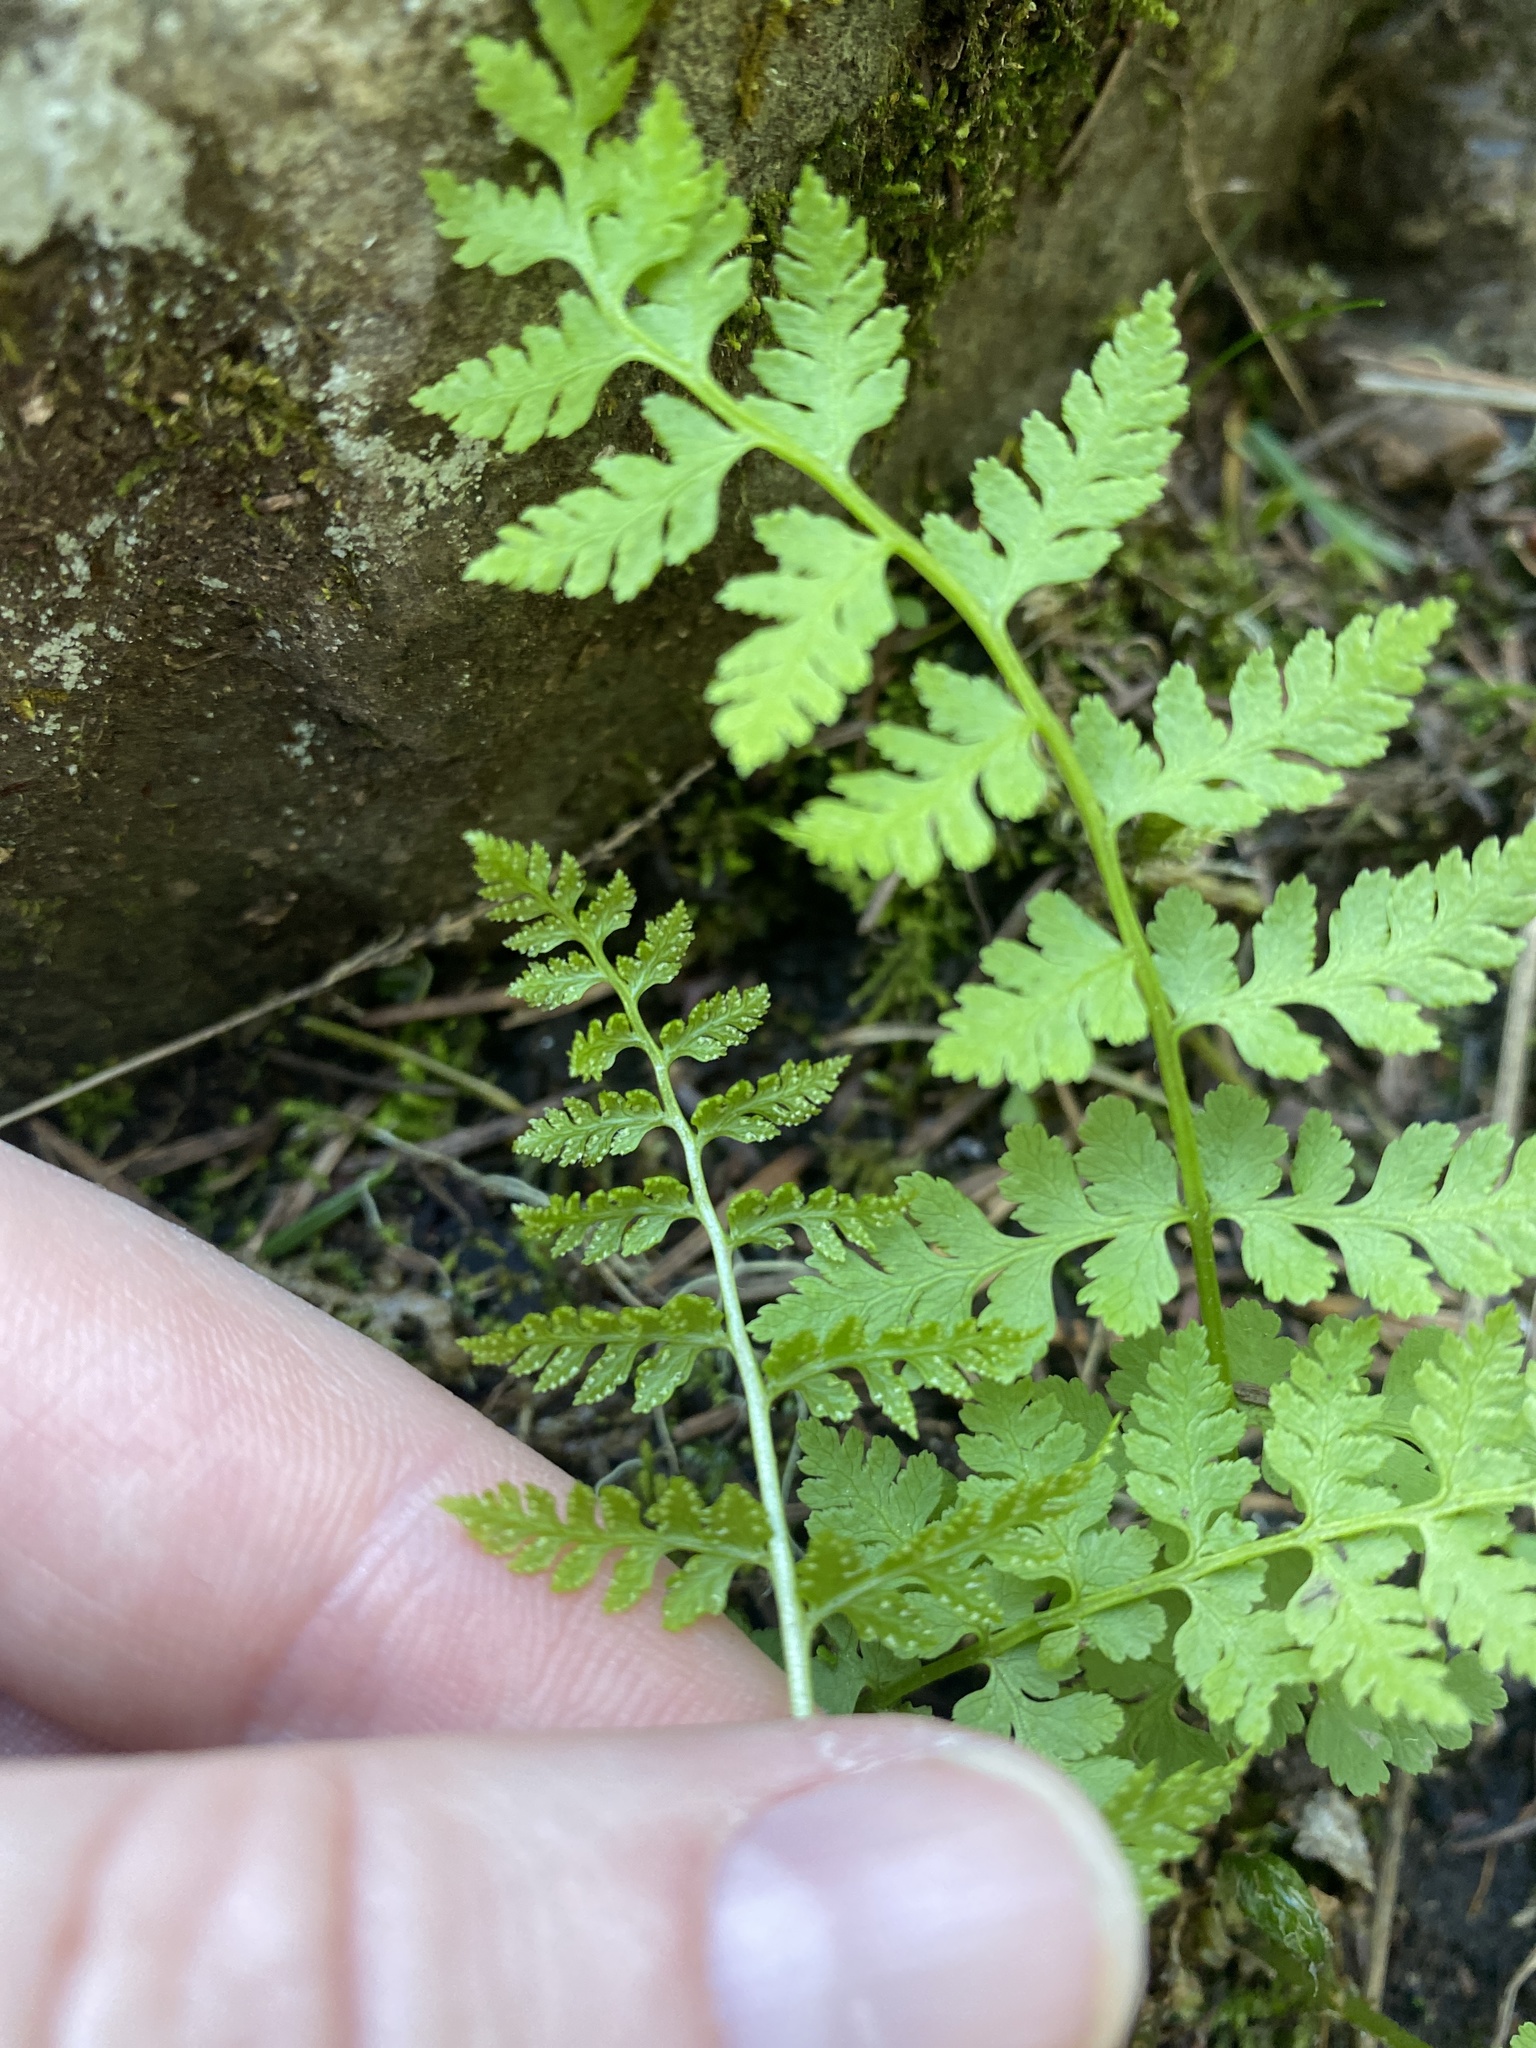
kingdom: Plantae
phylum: Tracheophyta
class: Polypodiopsida
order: Polypodiales
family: Cystopteridaceae
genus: Cystopteris
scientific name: Cystopteris fragilis
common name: Brittle bladder fern
